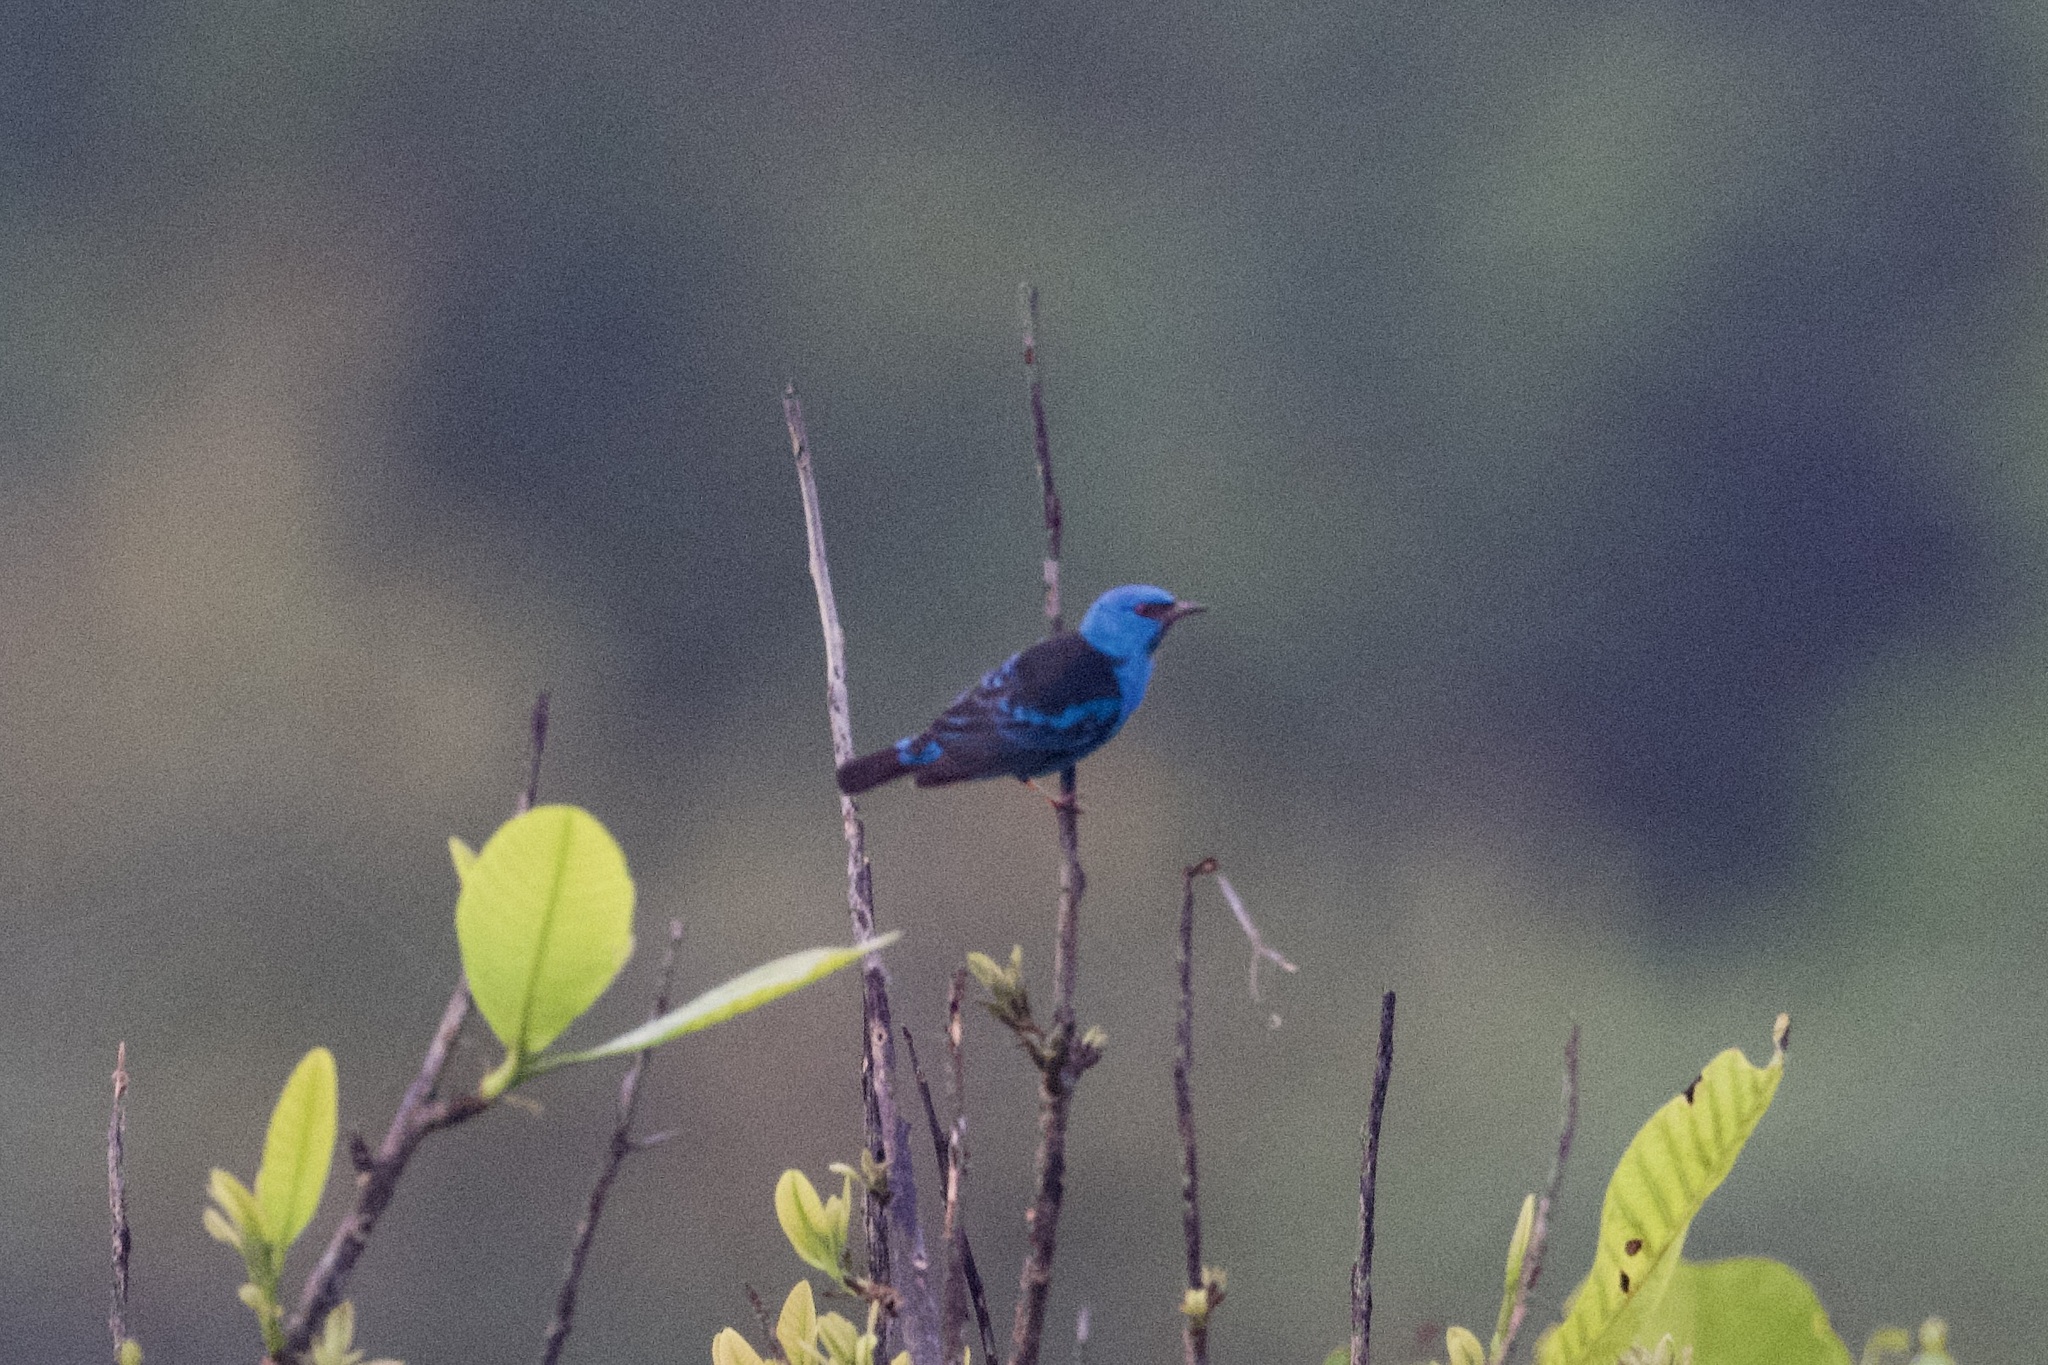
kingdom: Animalia
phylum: Chordata
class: Aves
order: Passeriformes
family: Thraupidae
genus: Dacnis
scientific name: Dacnis cayana
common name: Blue dacnis
